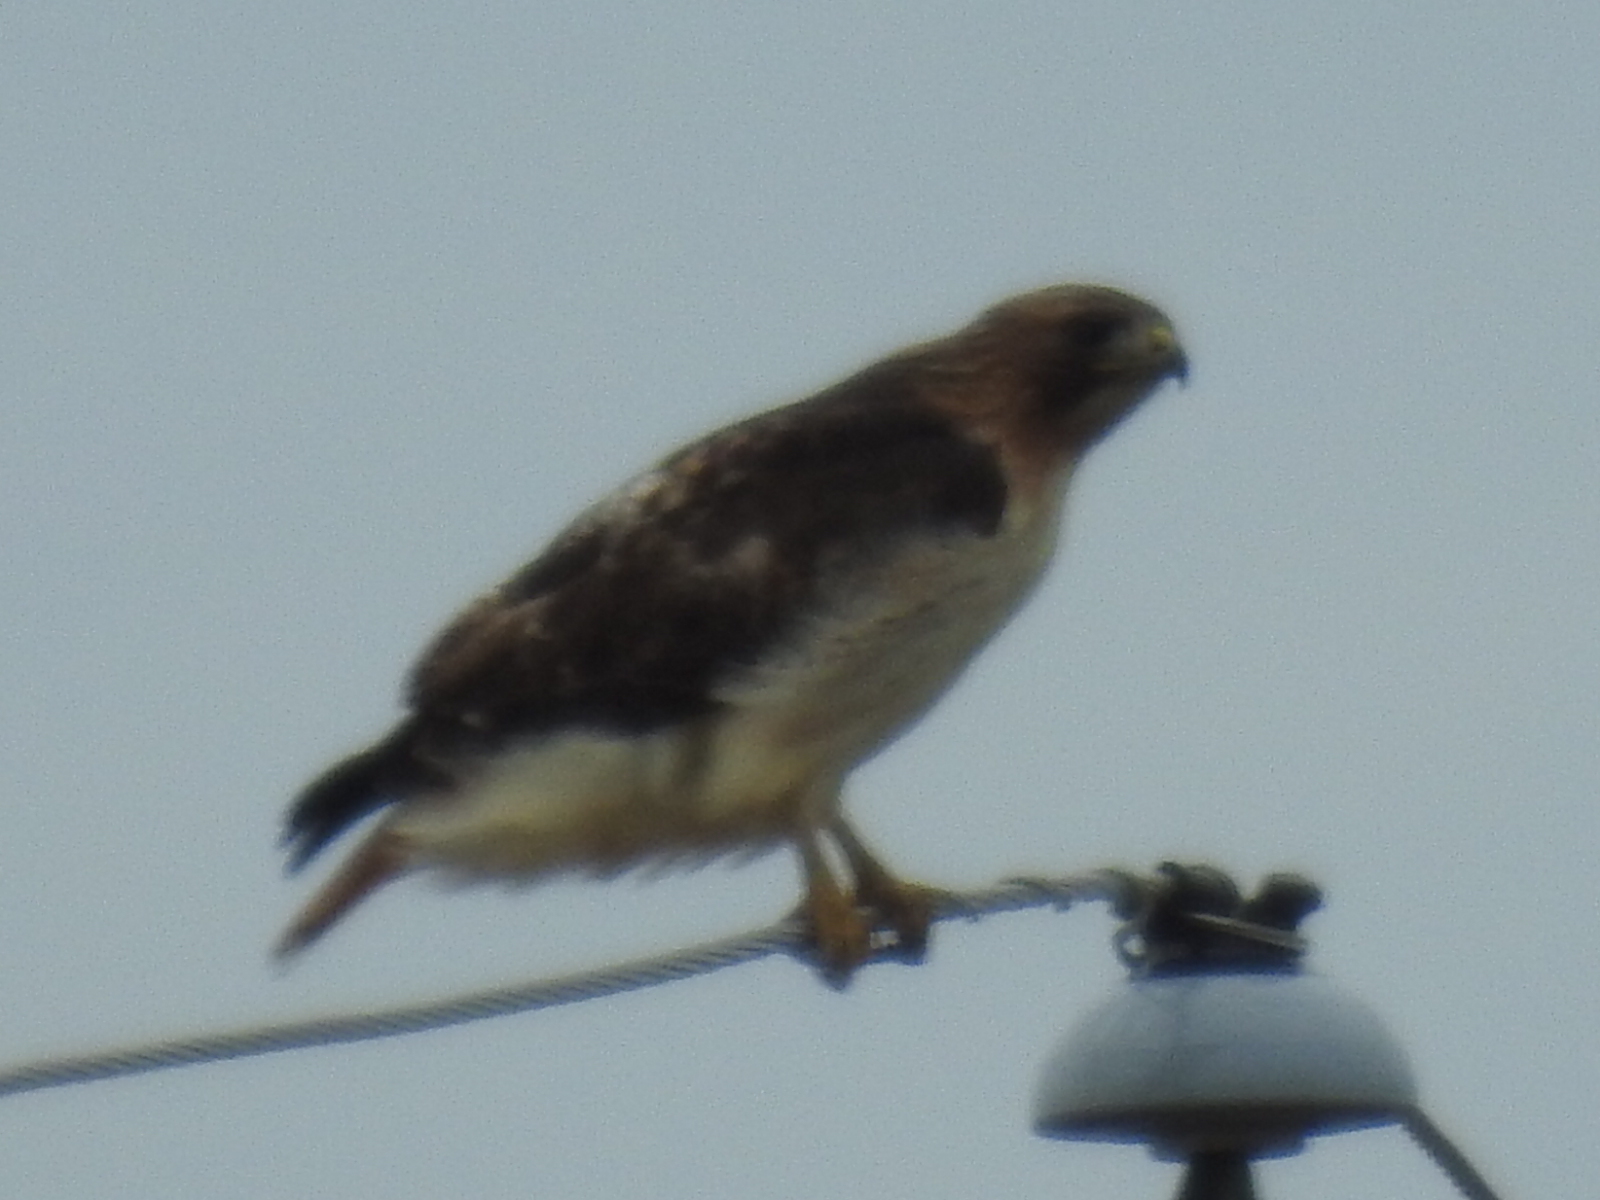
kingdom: Animalia
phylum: Chordata
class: Aves
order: Accipitriformes
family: Accipitridae
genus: Buteo
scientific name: Buteo jamaicensis
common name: Red-tailed hawk
